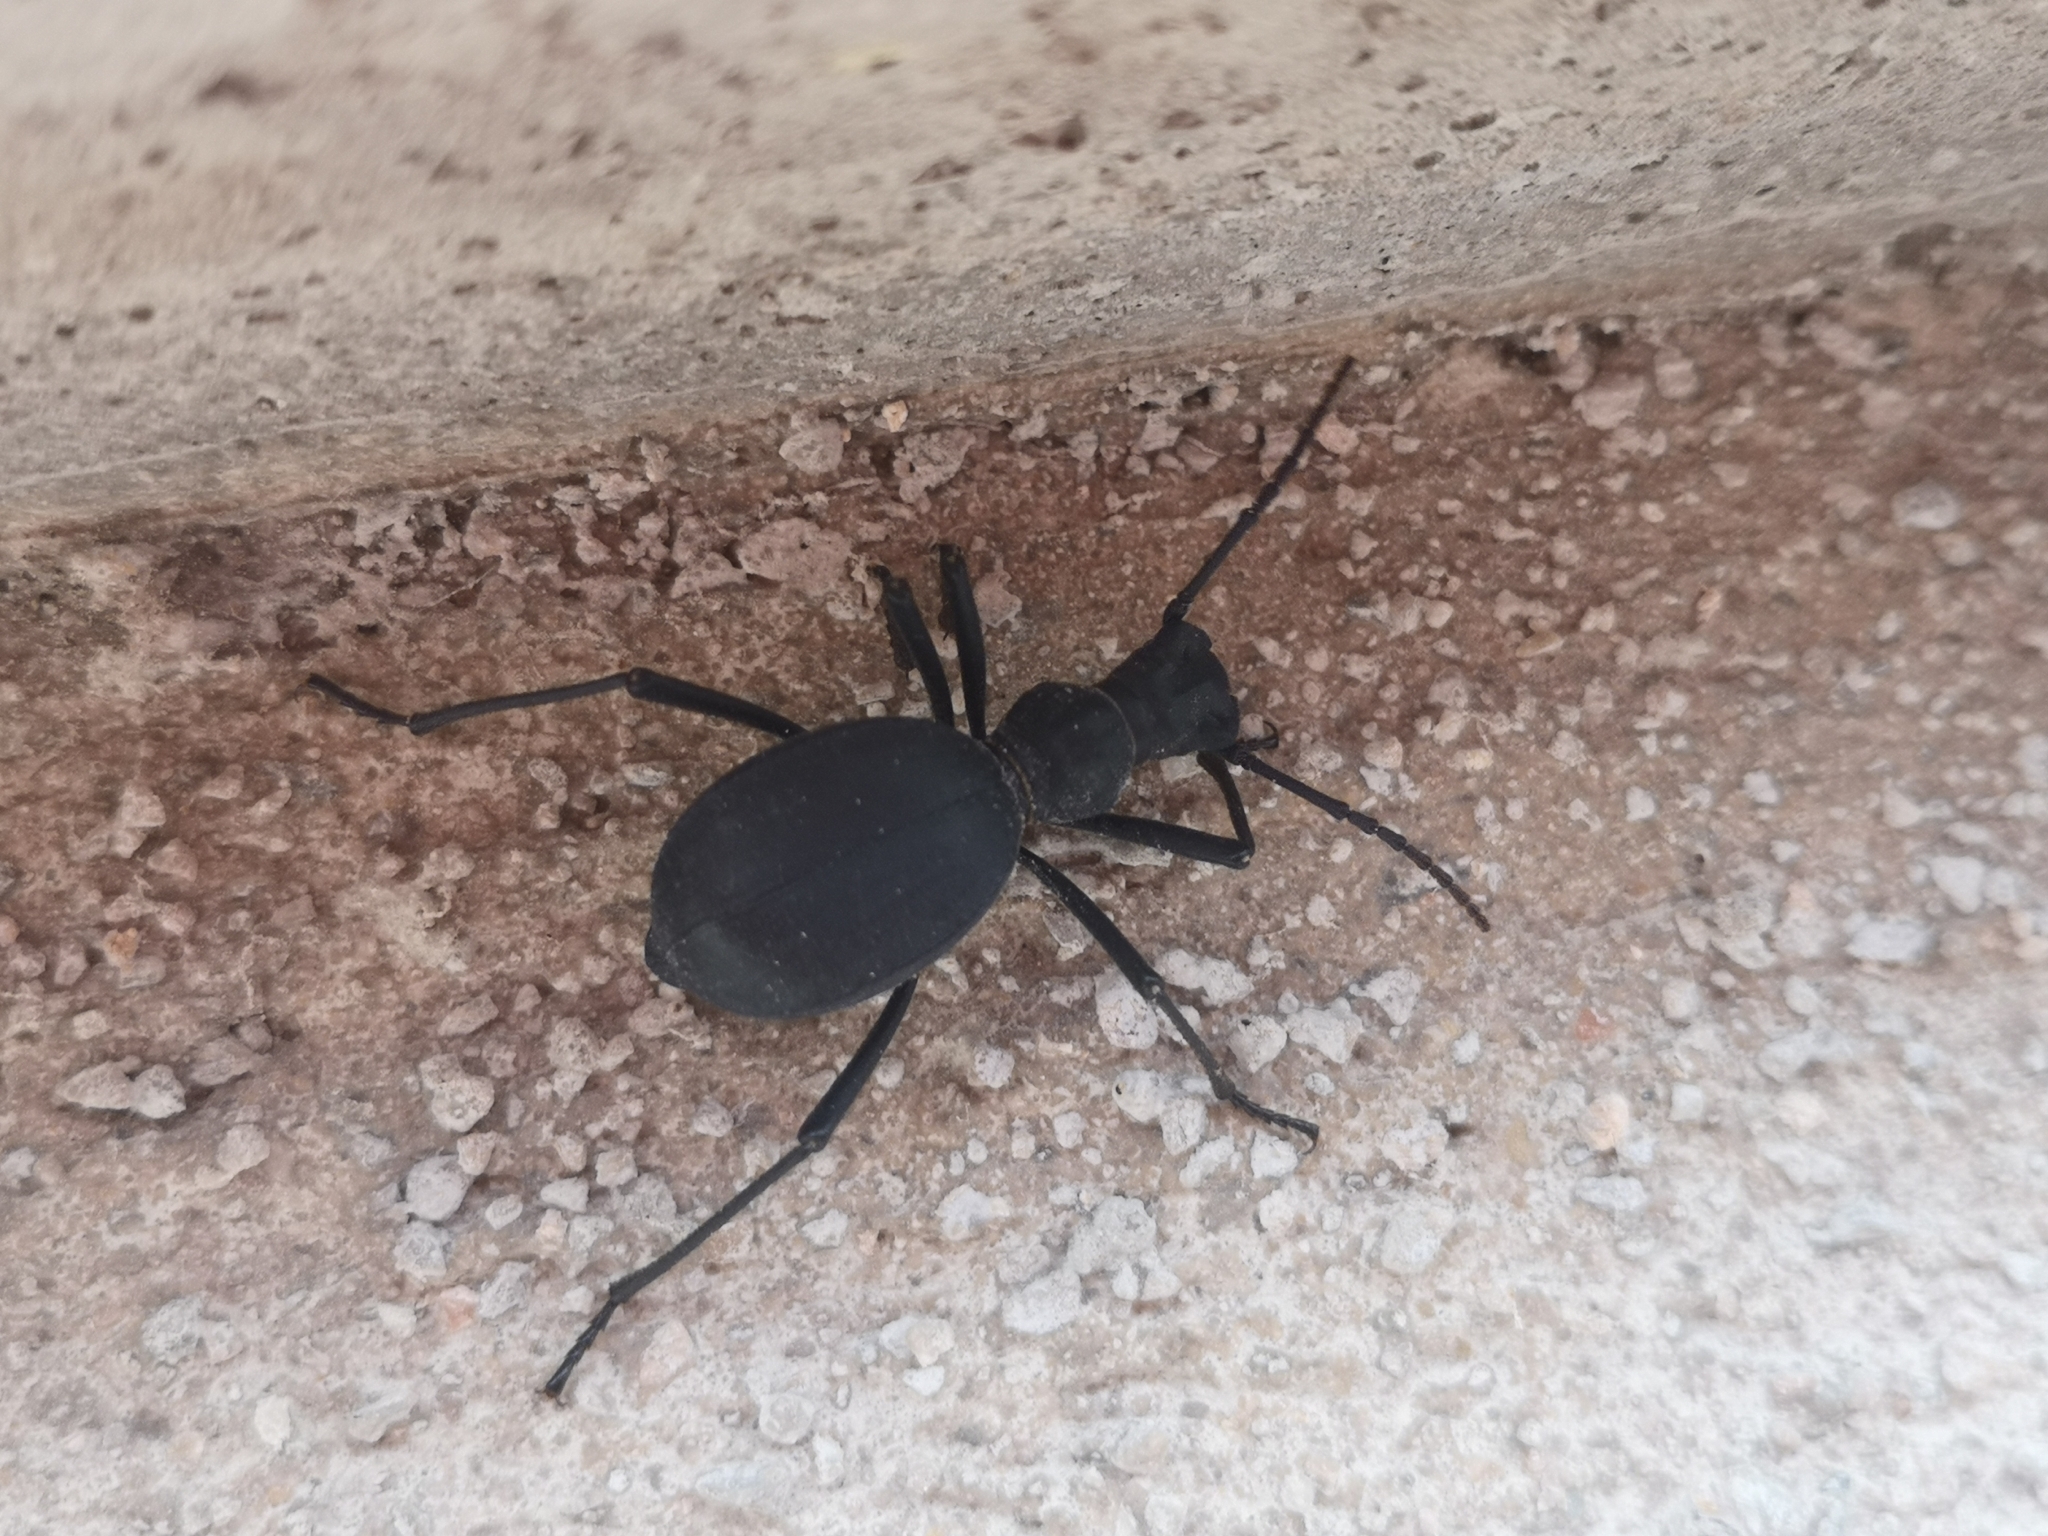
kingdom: Animalia
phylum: Arthropoda
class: Insecta
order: Coleoptera
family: Tenebrionidae
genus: Leptoderis
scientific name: Leptoderis solieri
